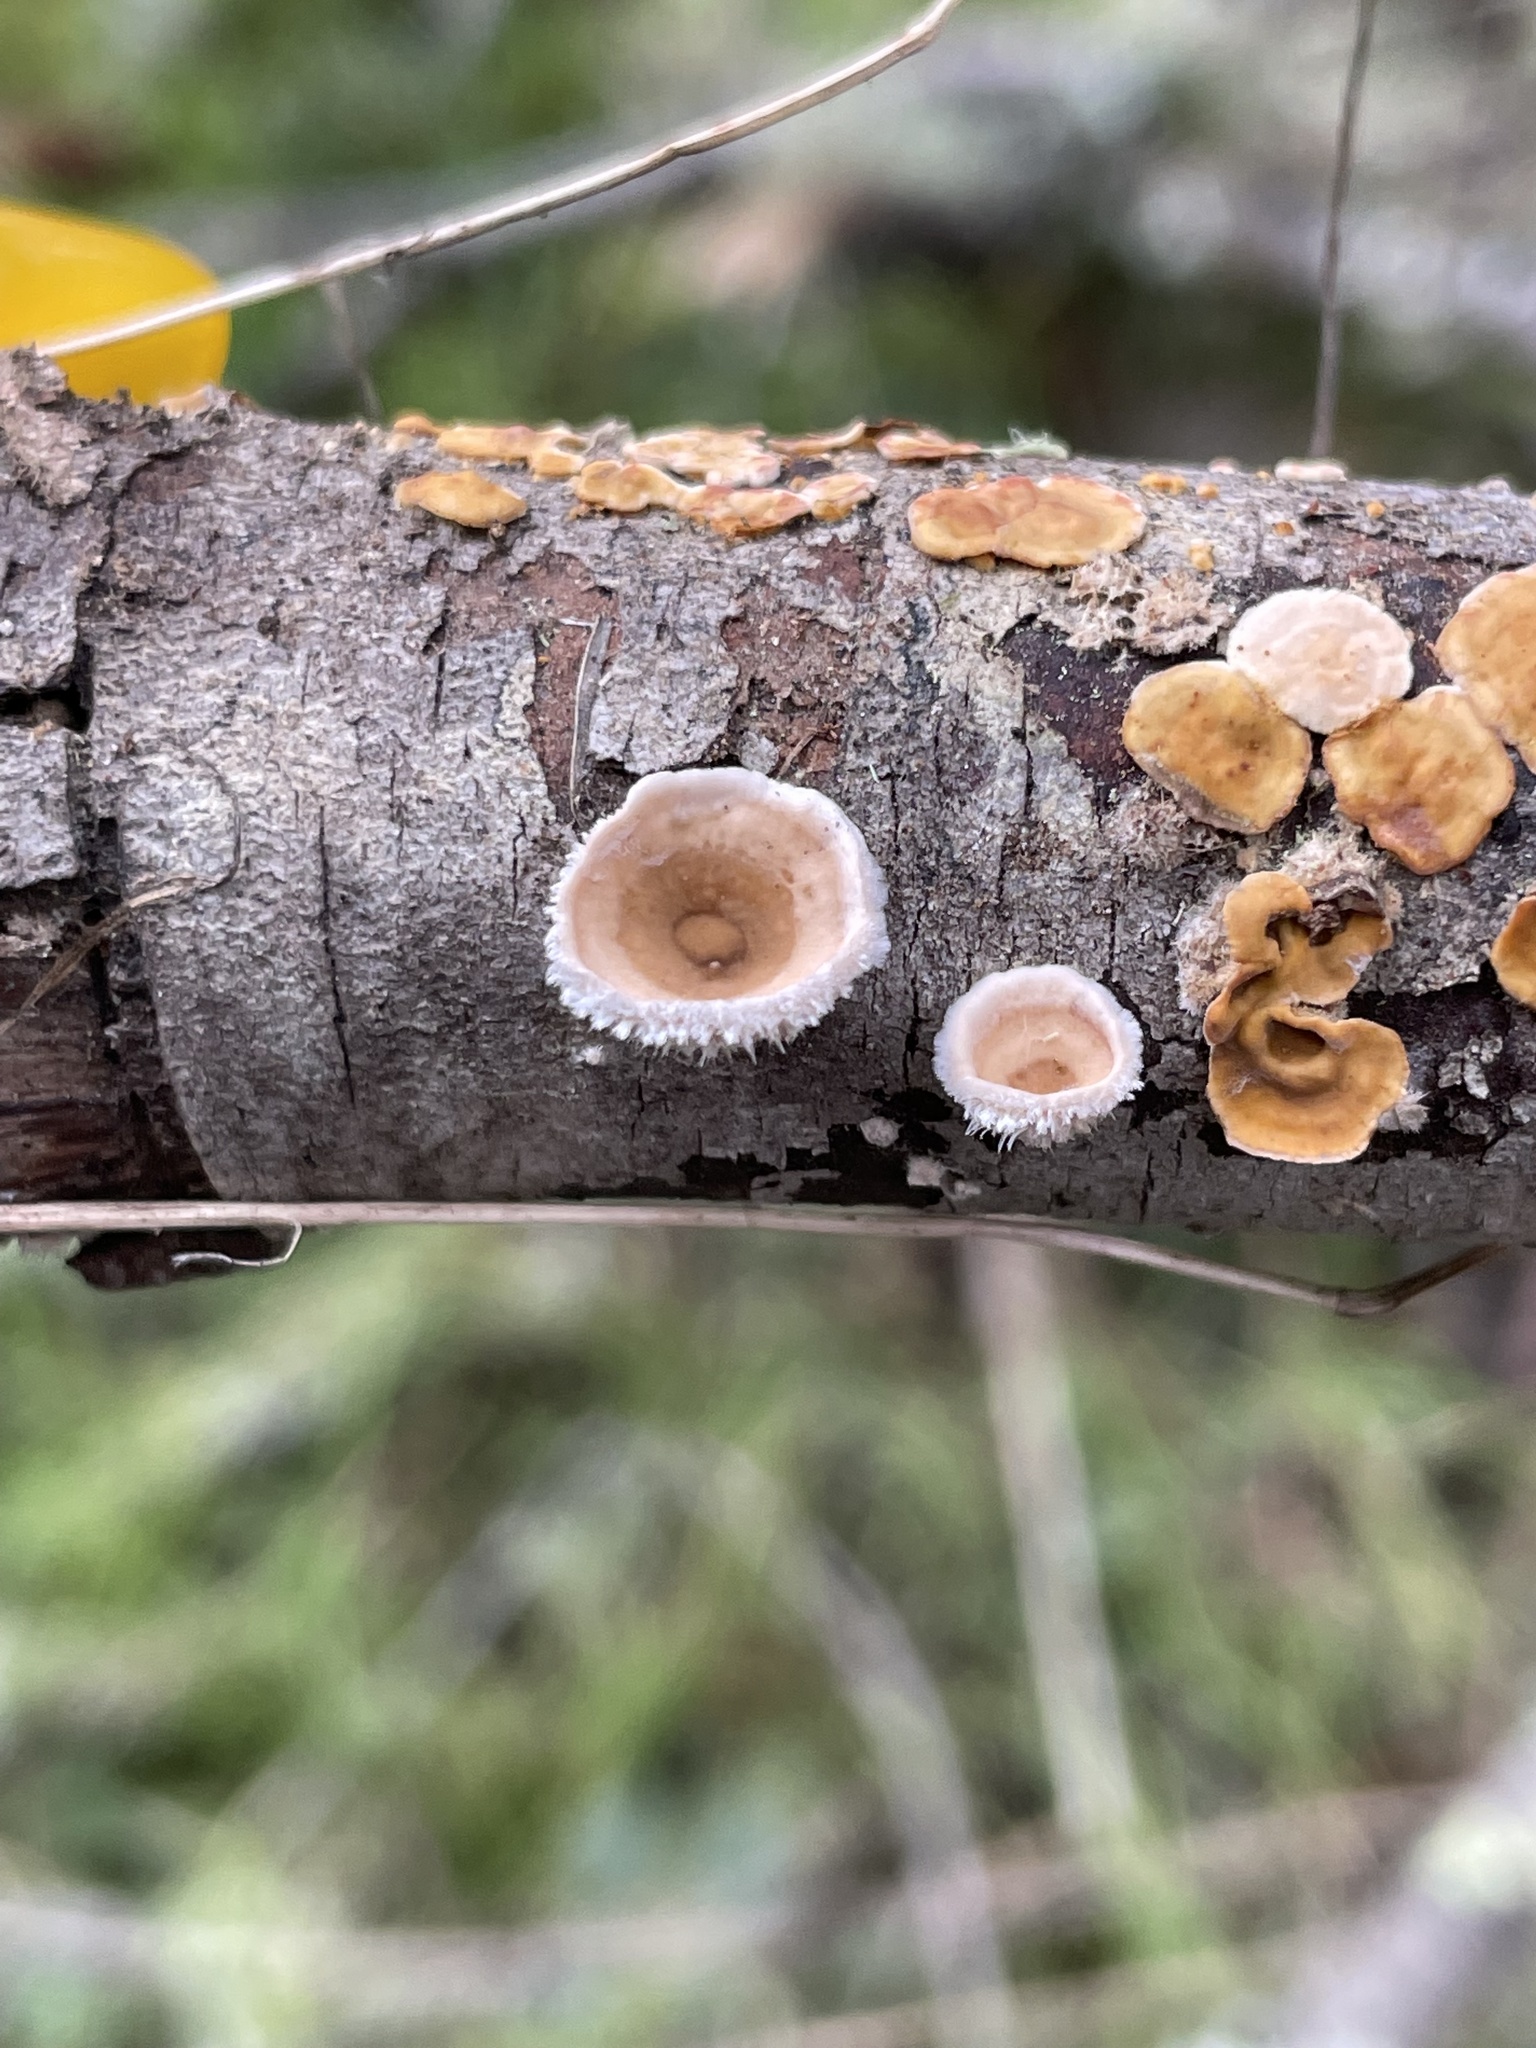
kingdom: Fungi
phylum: Basidiomycota
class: Agaricomycetes
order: Russulales
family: Stereaceae
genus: Stereum
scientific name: Stereum ochraceoflavum
